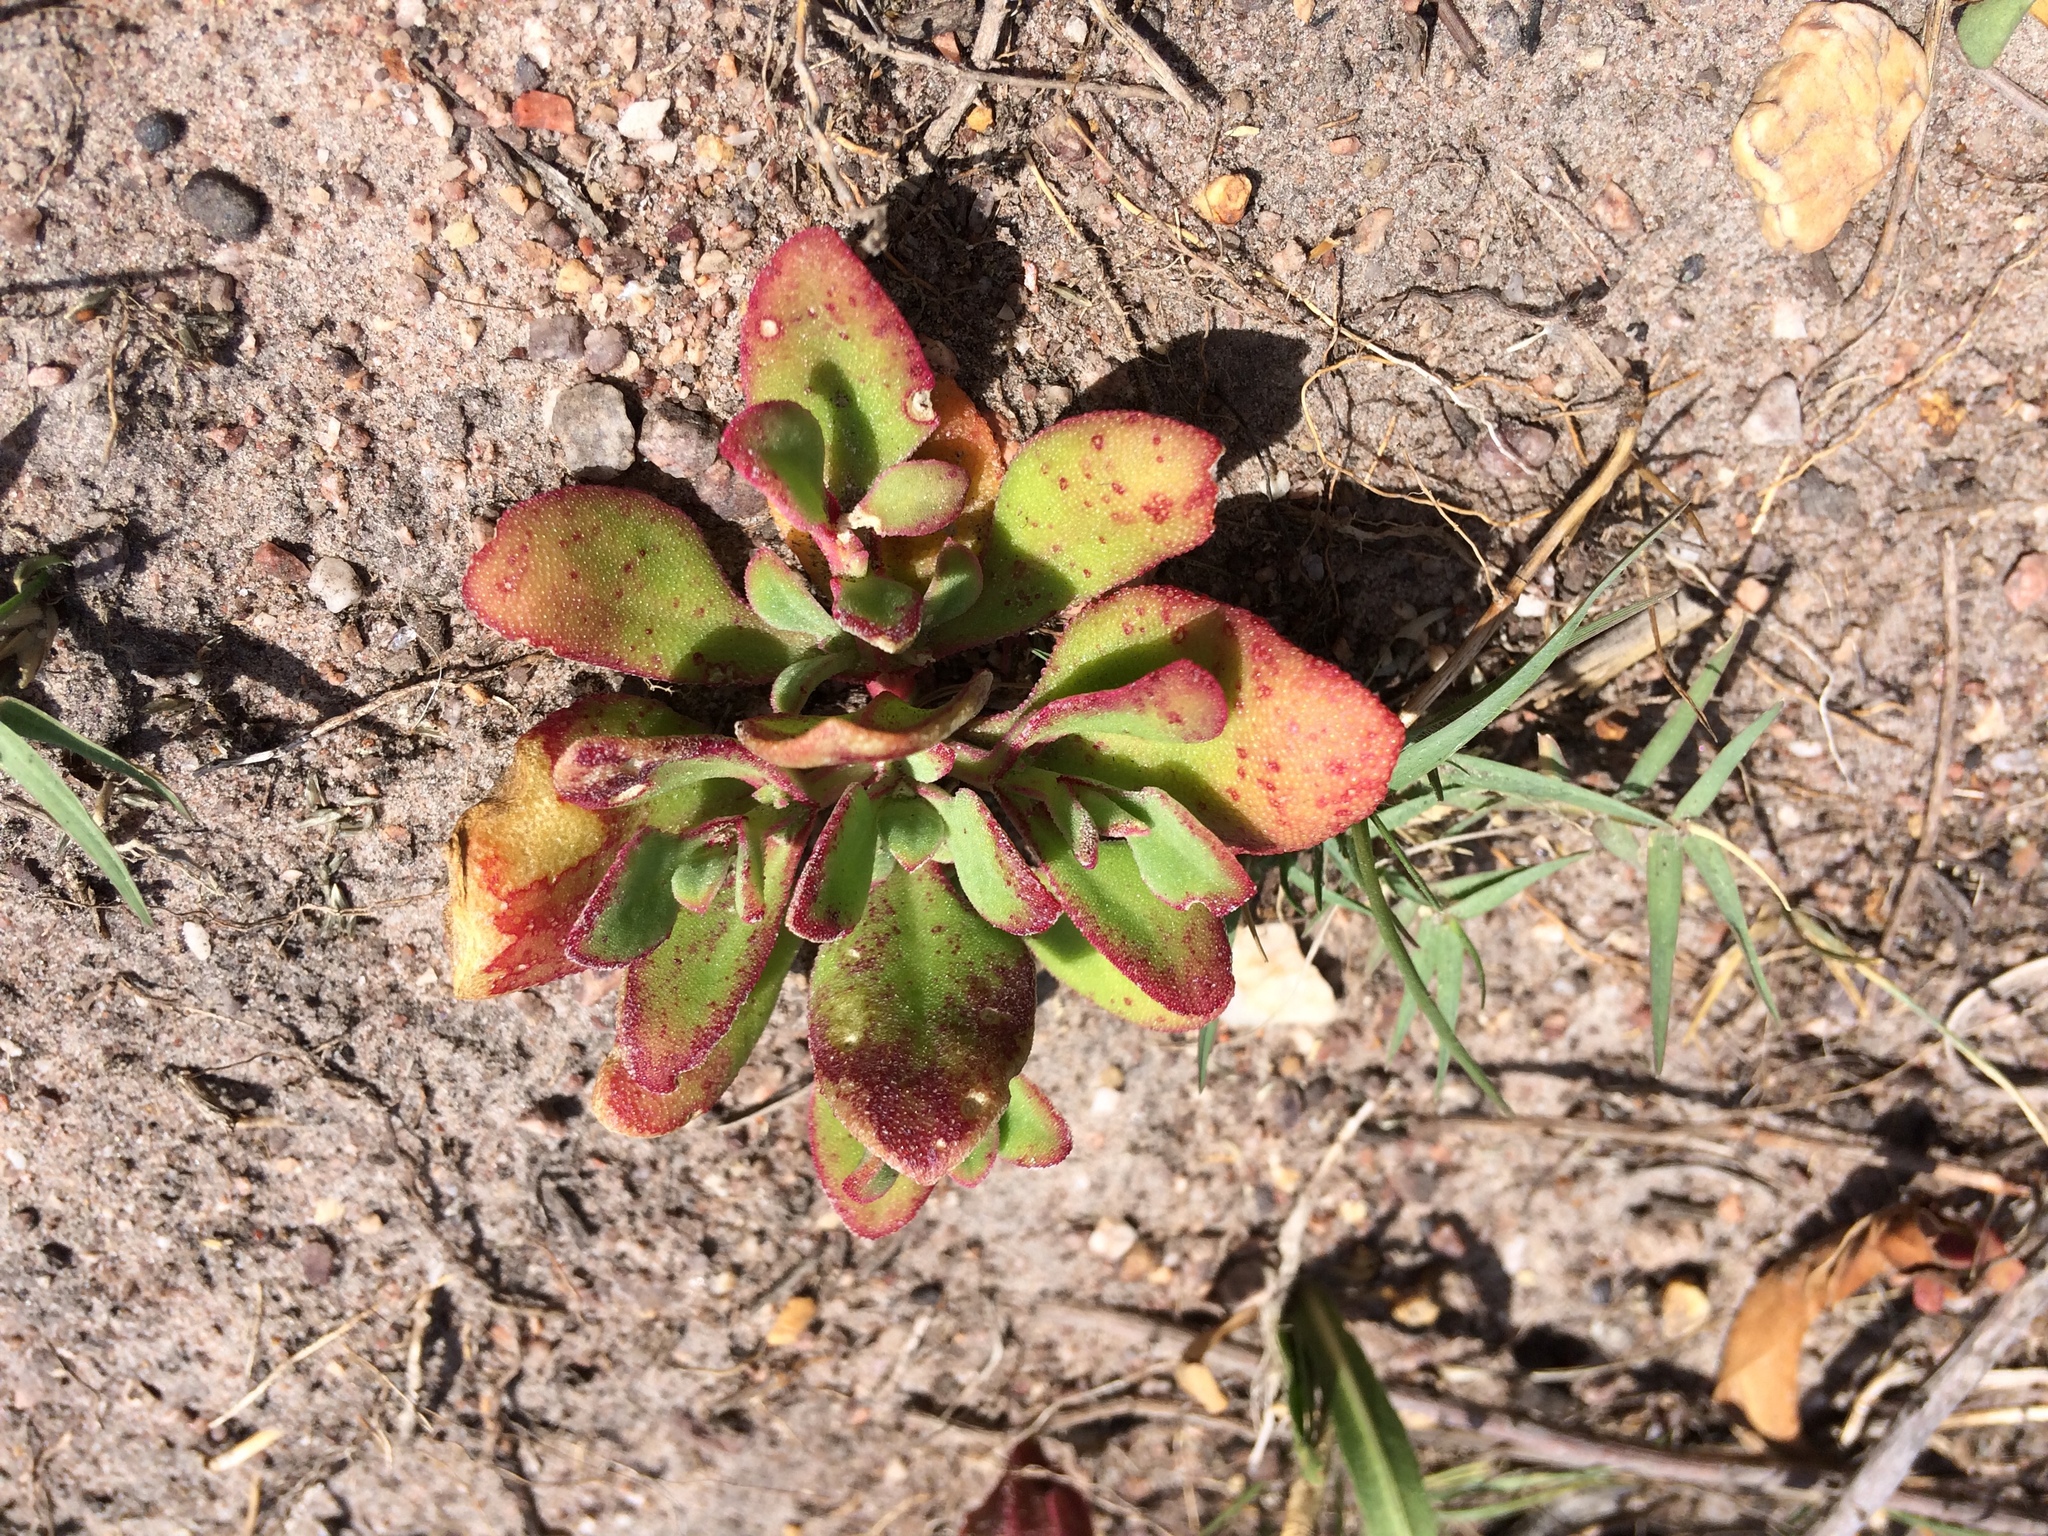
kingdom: Plantae
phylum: Tracheophyta
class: Magnoliopsida
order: Caryophyllales
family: Aizoaceae
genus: Mesembryanthemum
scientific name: Mesembryanthemum aitonis
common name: Angled iceplant
